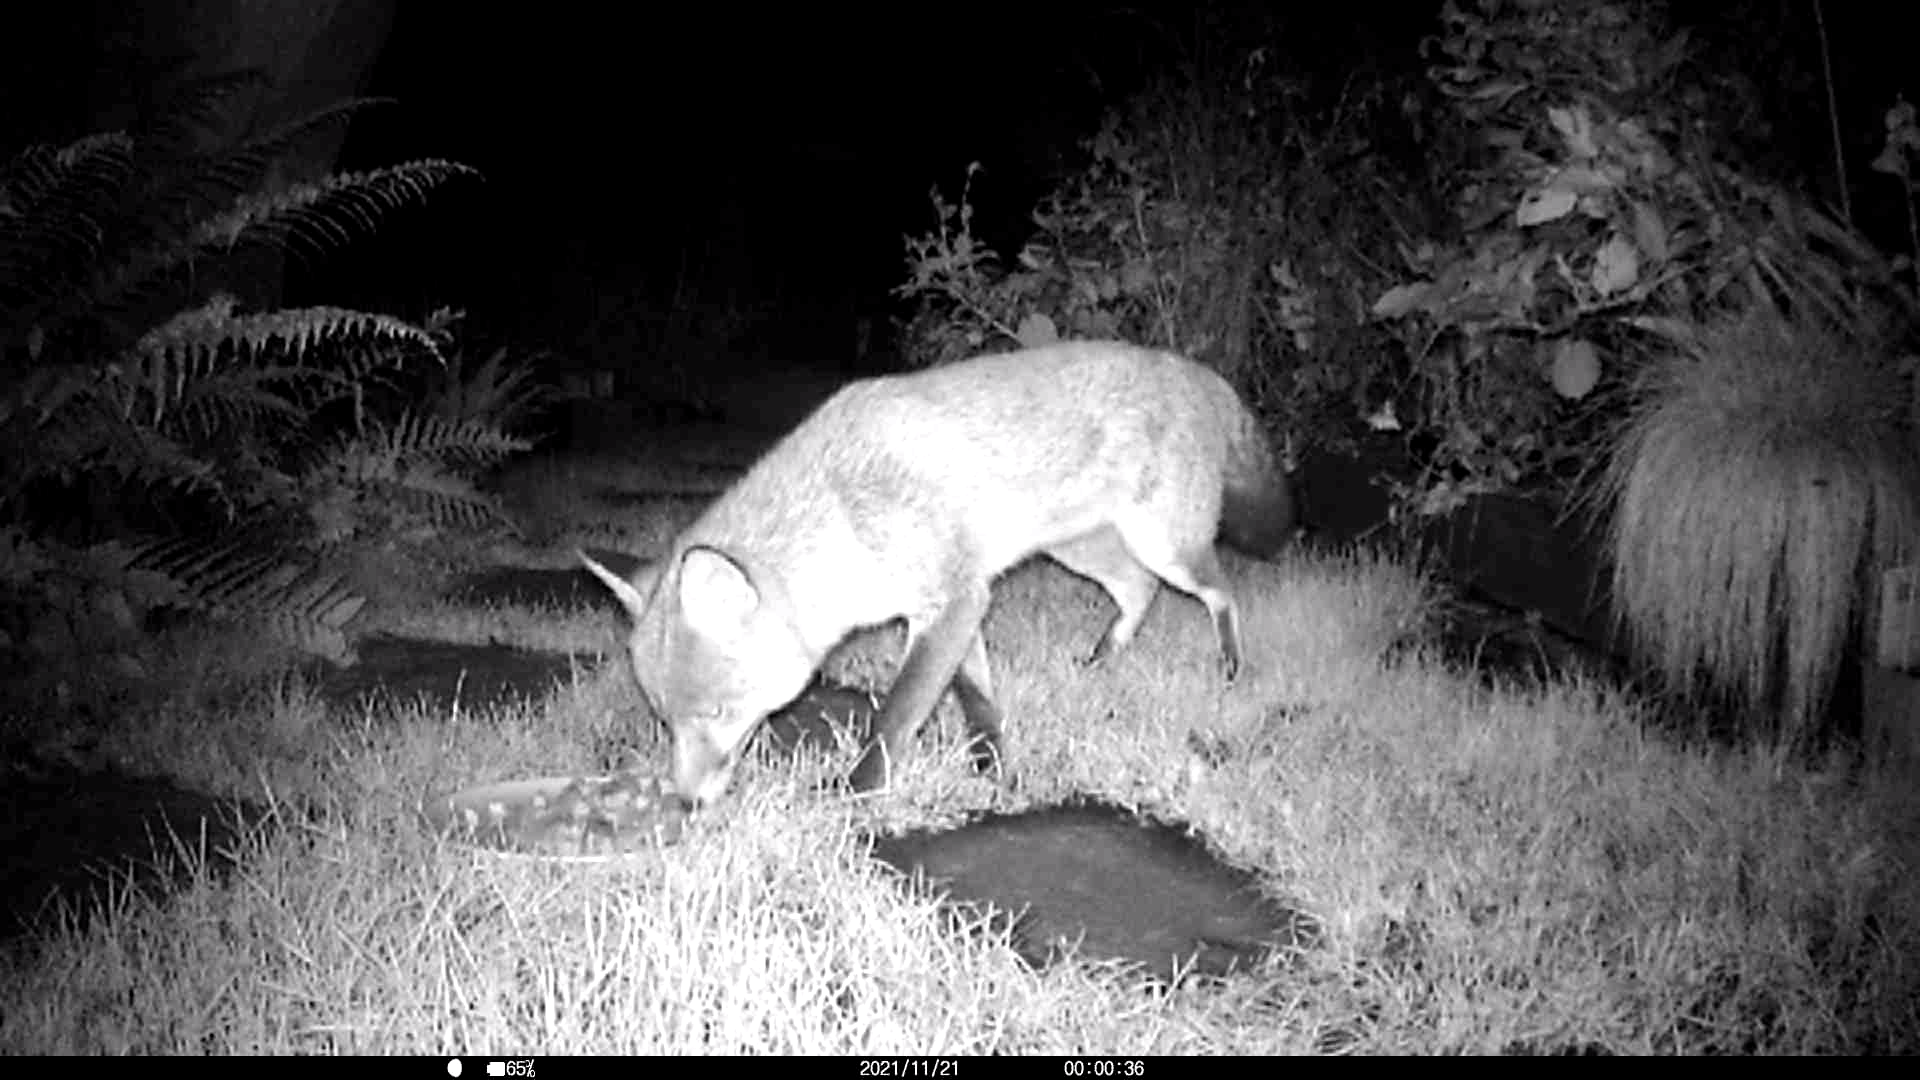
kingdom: Animalia
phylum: Chordata
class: Mammalia
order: Carnivora
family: Canidae
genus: Vulpes
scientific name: Vulpes vulpes
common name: Red fox
